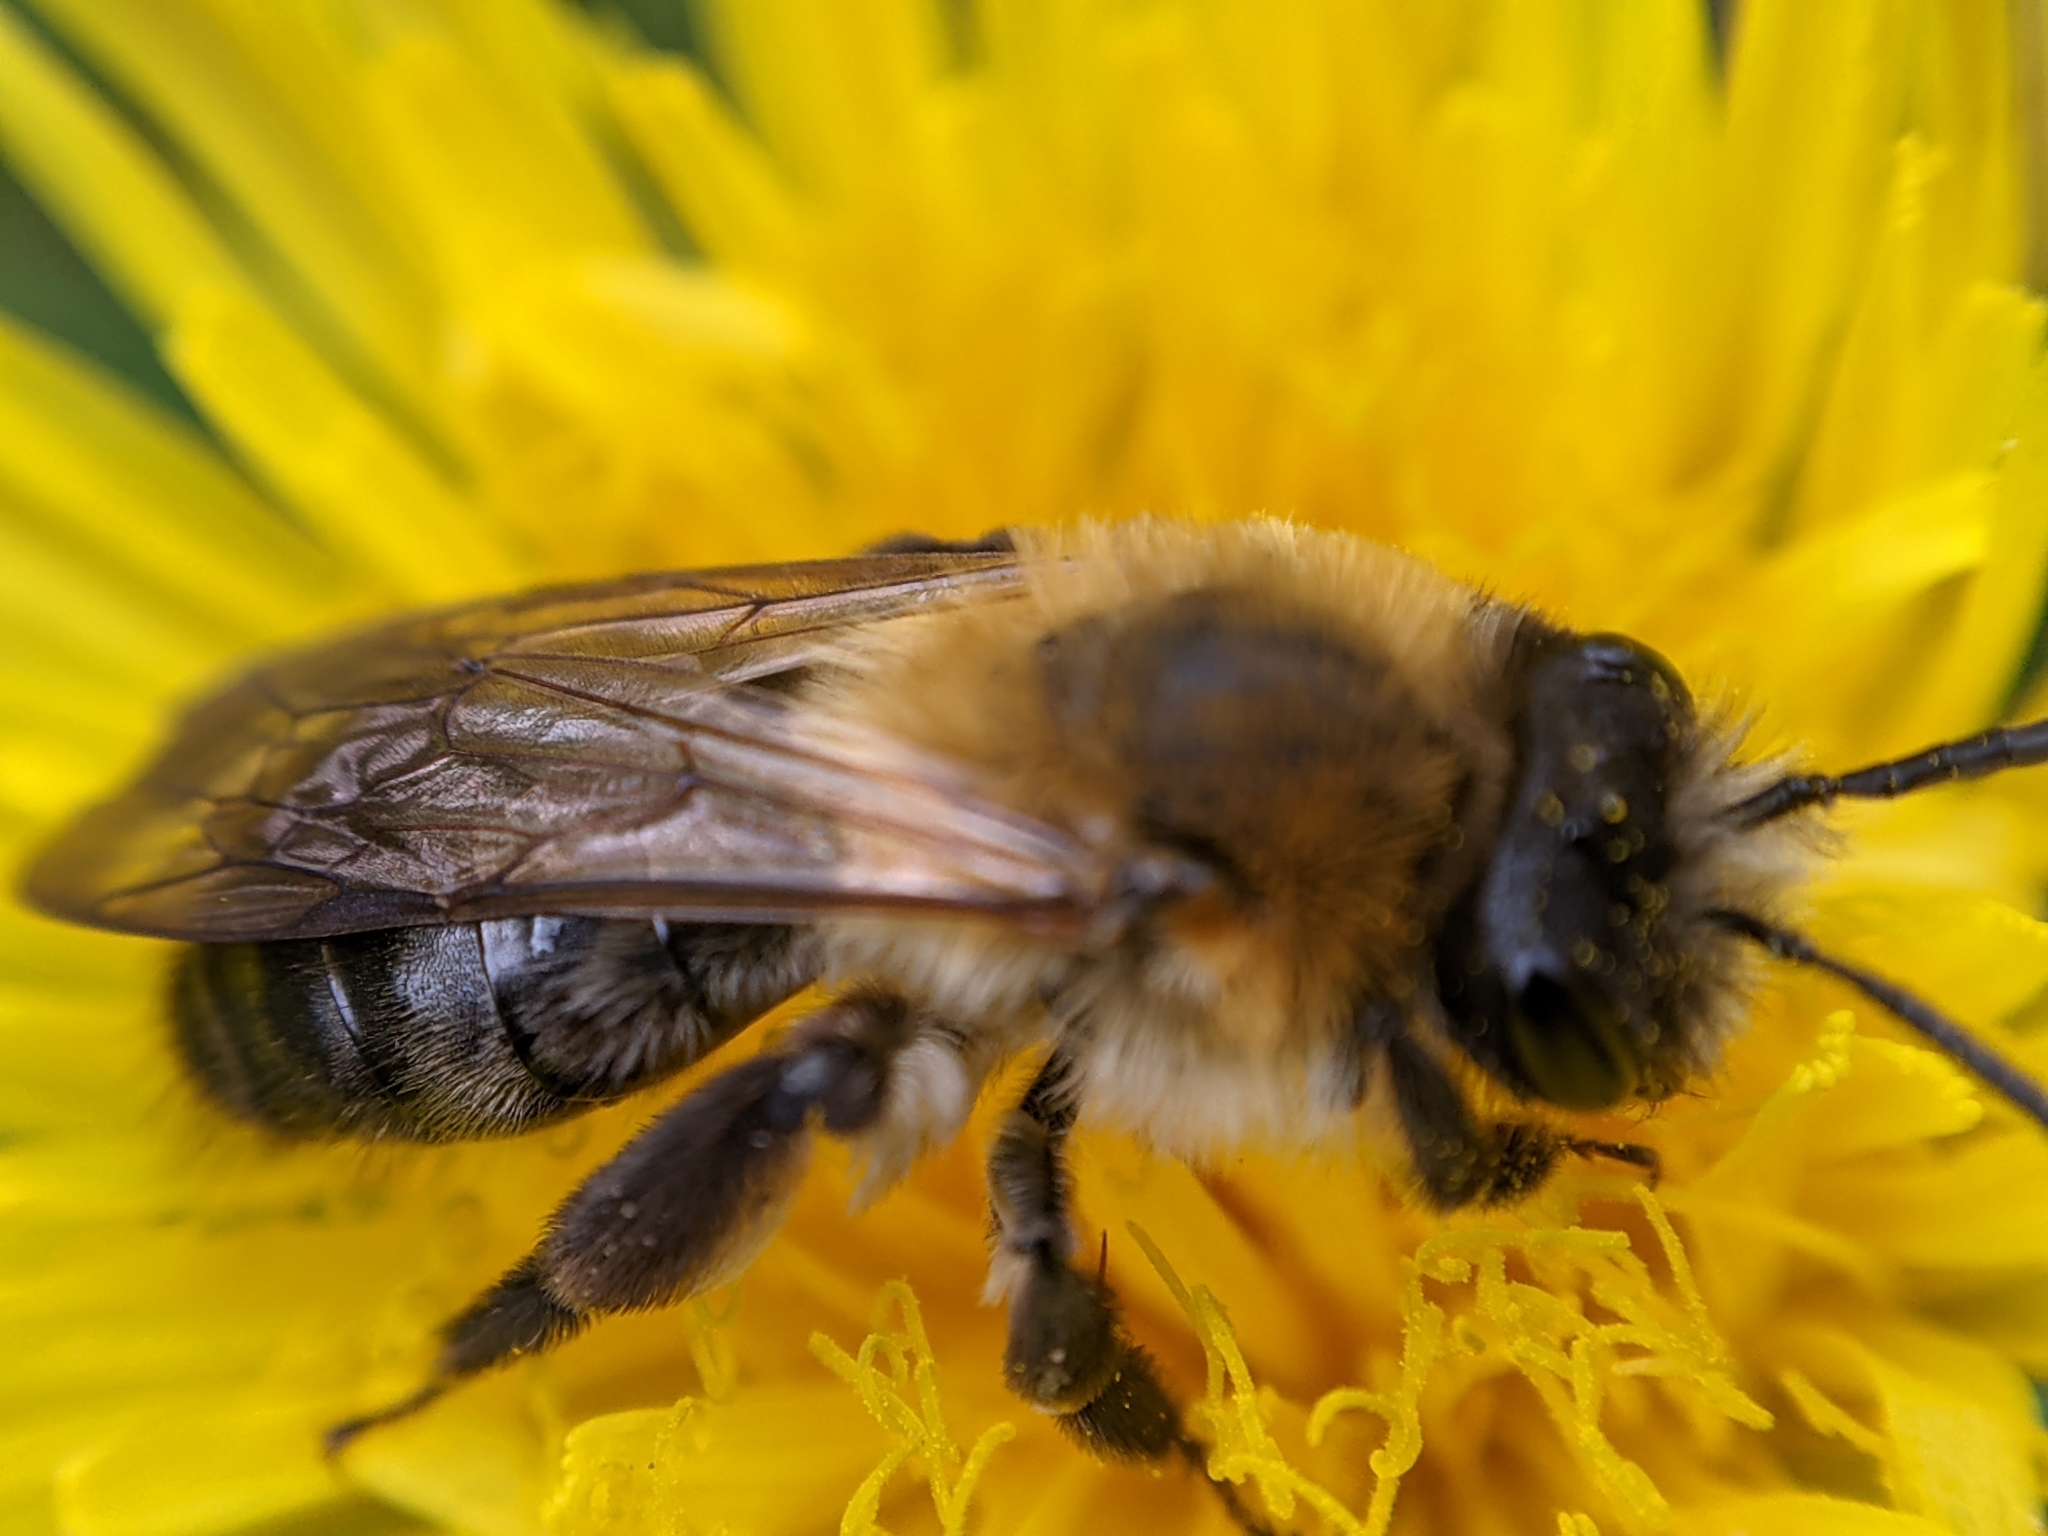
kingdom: Animalia
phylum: Arthropoda
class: Insecta
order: Hymenoptera
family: Andrenidae
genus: Andrena
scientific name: Andrena nitida
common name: Grey-patched mining bee
